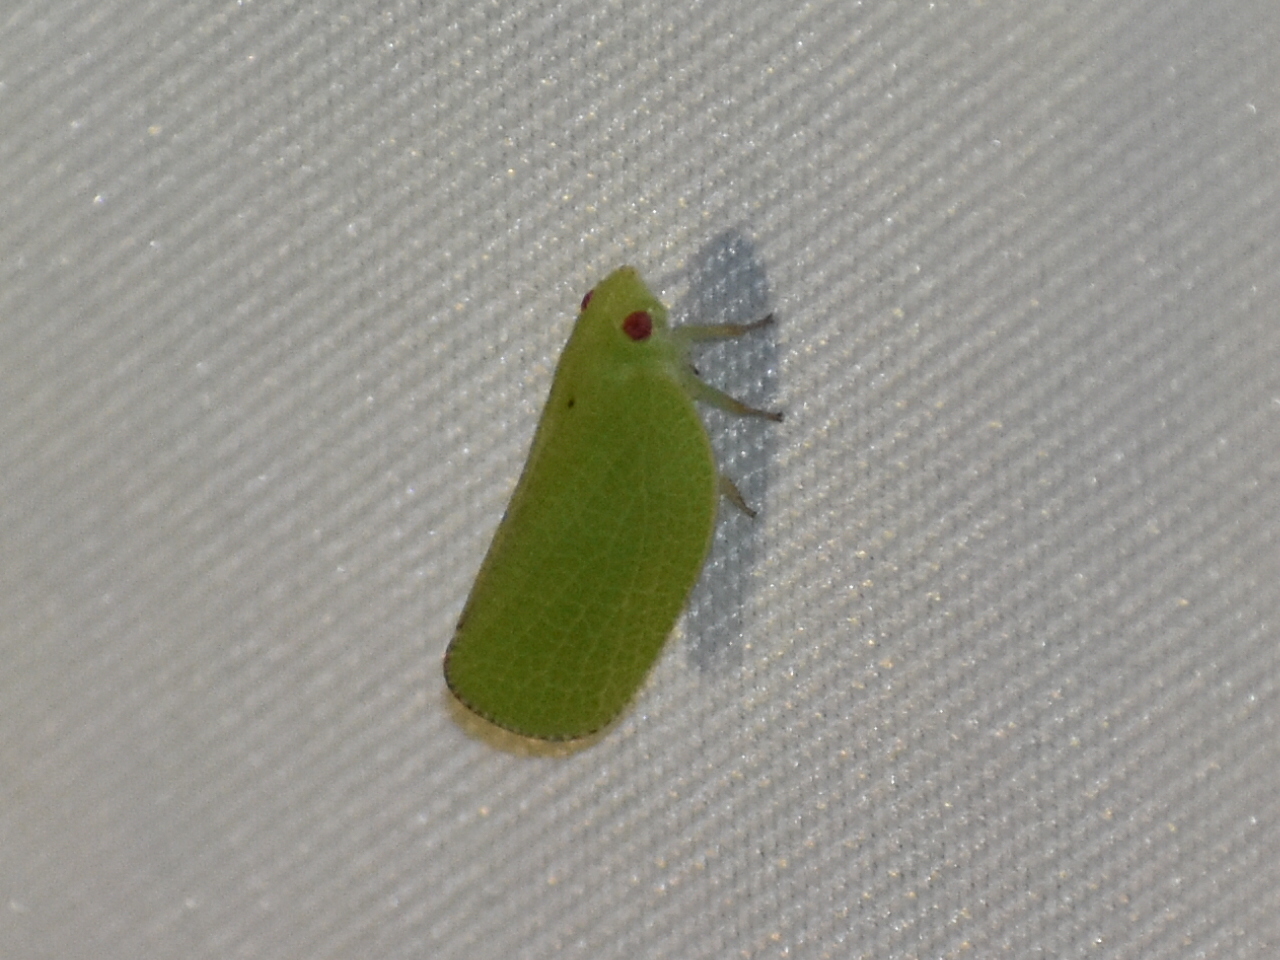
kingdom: Animalia
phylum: Arthropoda
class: Insecta
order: Hemiptera
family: Acanaloniidae
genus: Acanalonia
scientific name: Acanalonia conica
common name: Green cone-headed planthopper
